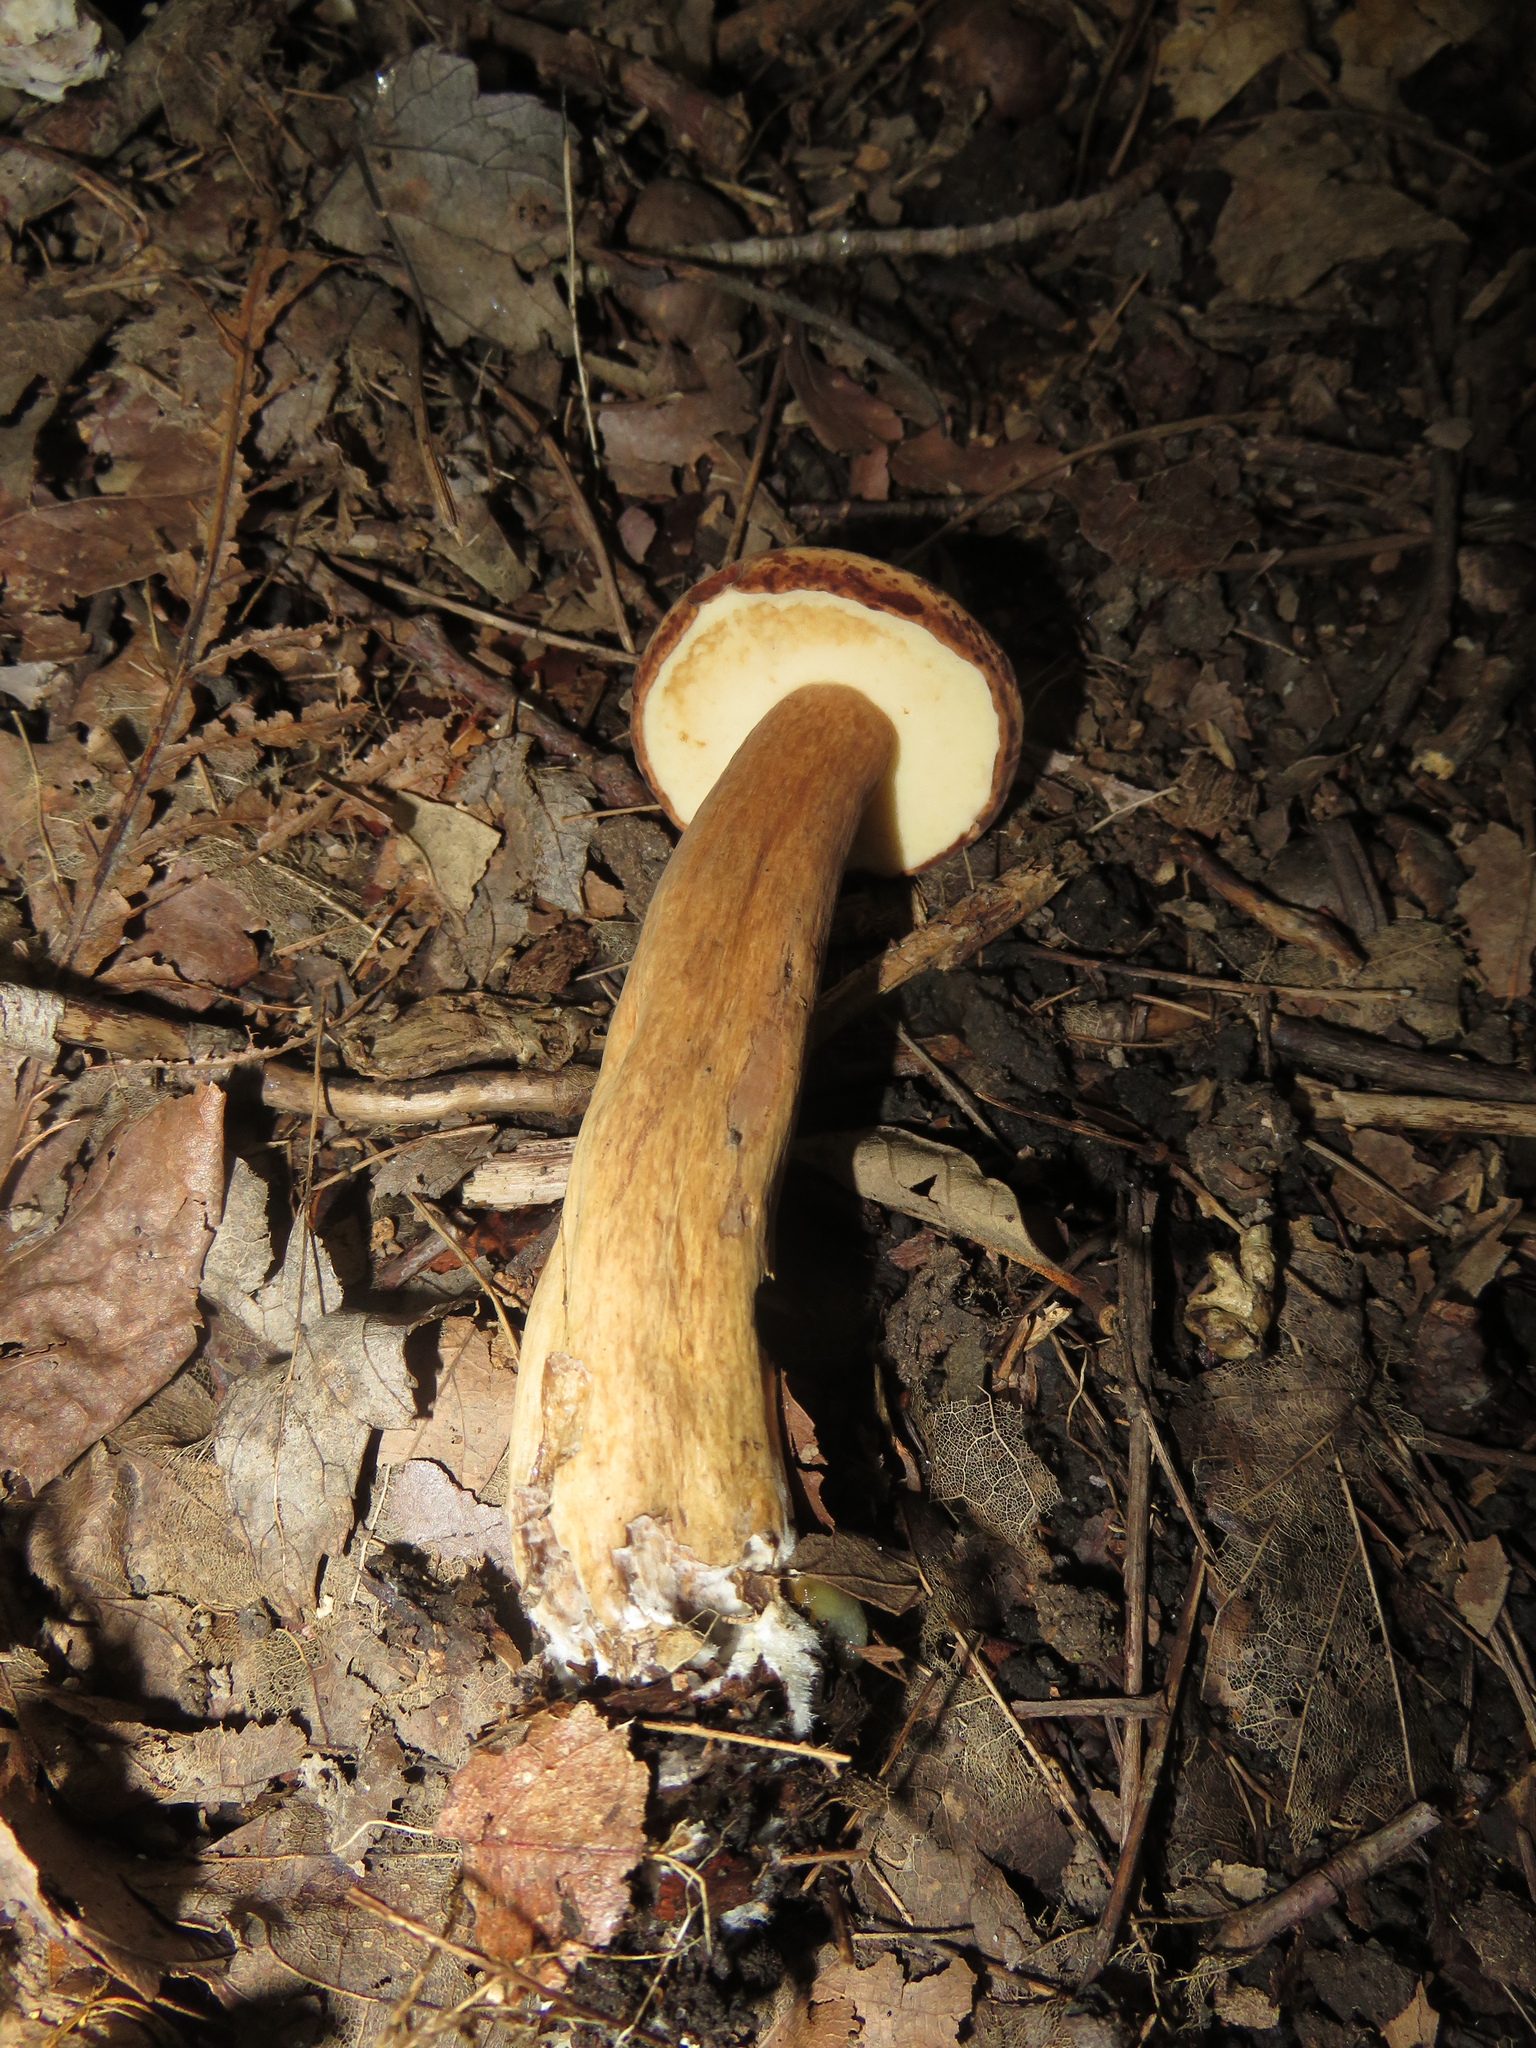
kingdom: Fungi
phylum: Basidiomycota
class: Agaricomycetes
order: Boletales
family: Boletaceae
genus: Tylopilus
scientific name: Tylopilus badiceps
